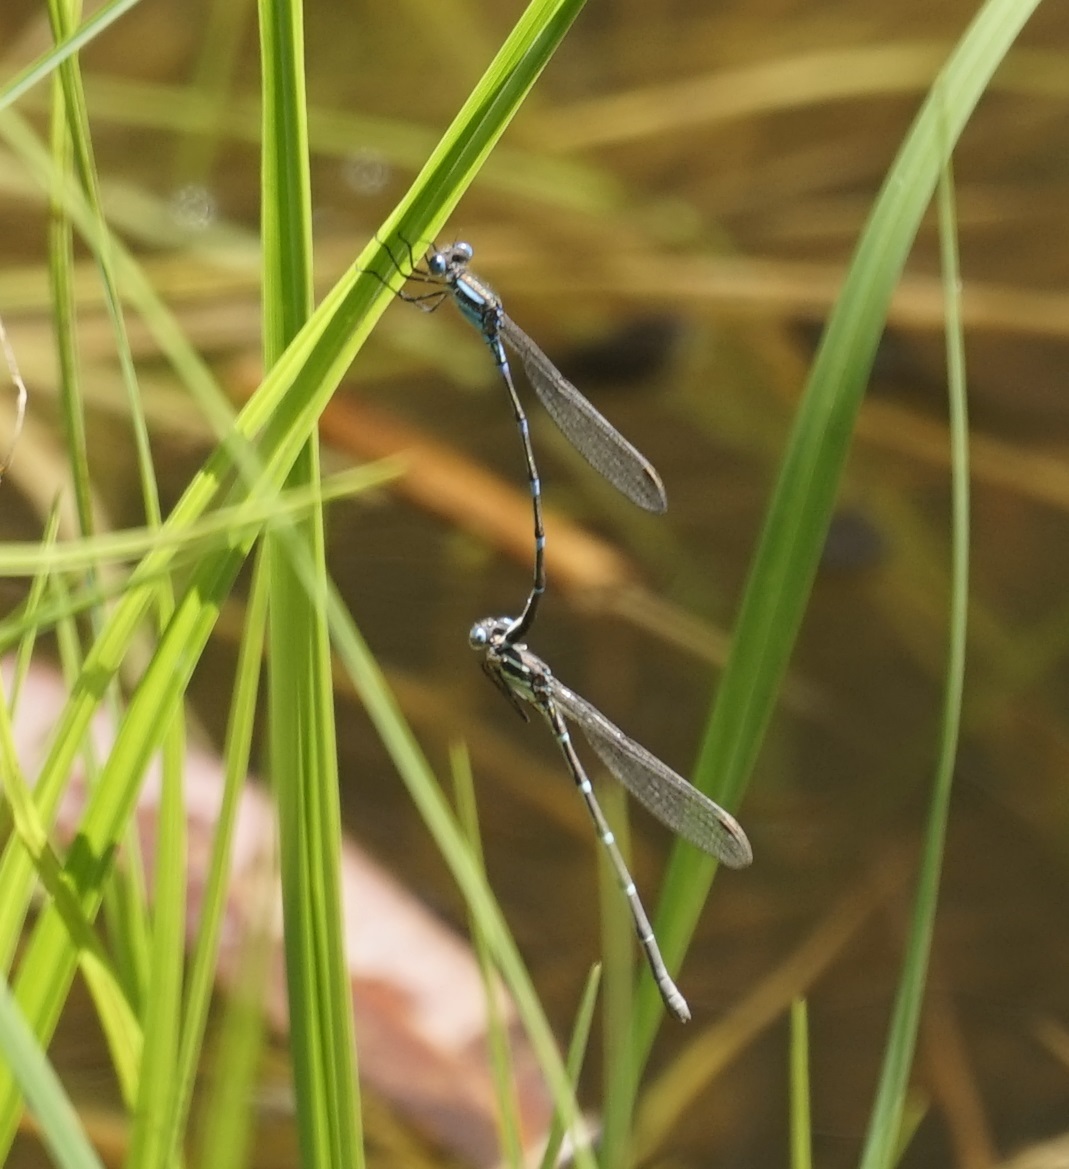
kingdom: Animalia
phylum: Arthropoda
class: Insecta
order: Odonata
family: Lestidae
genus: Austrolestes
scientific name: Austrolestes leda
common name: Wandering ringtail
